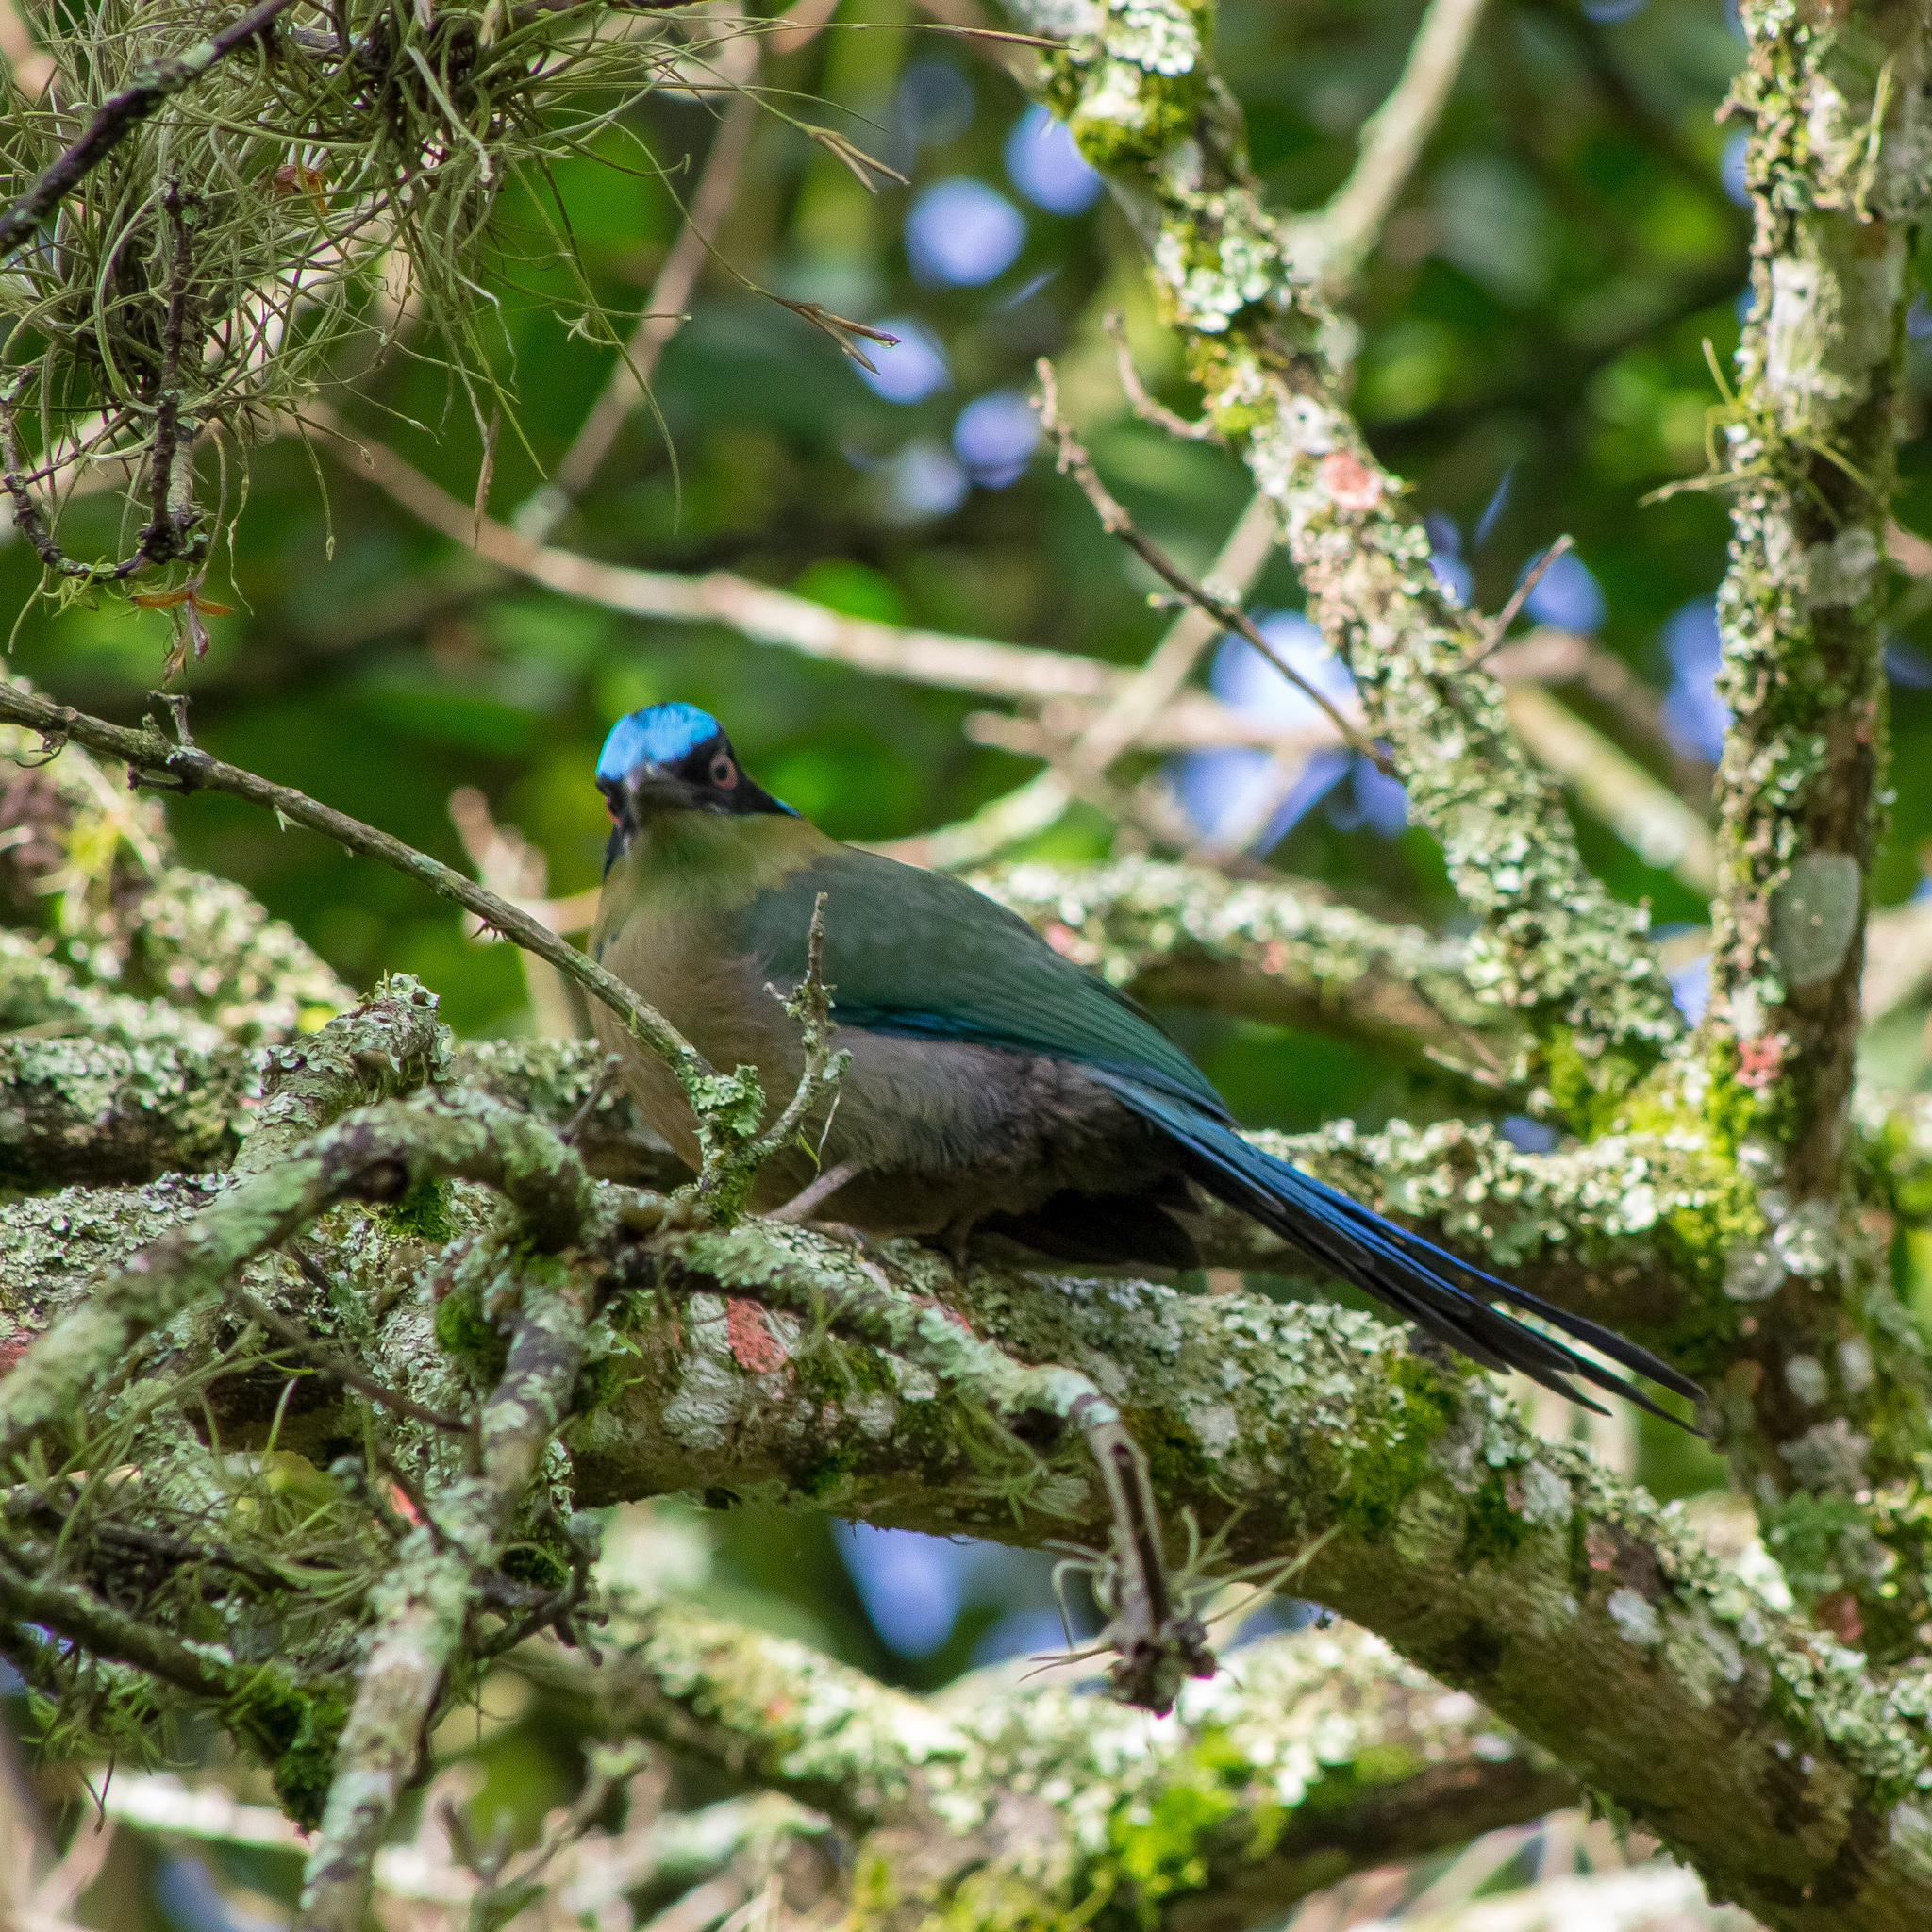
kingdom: Animalia
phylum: Chordata
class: Aves
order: Coraciiformes
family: Momotidae
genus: Momotus
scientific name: Momotus aequatorialis
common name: Andean motmot
